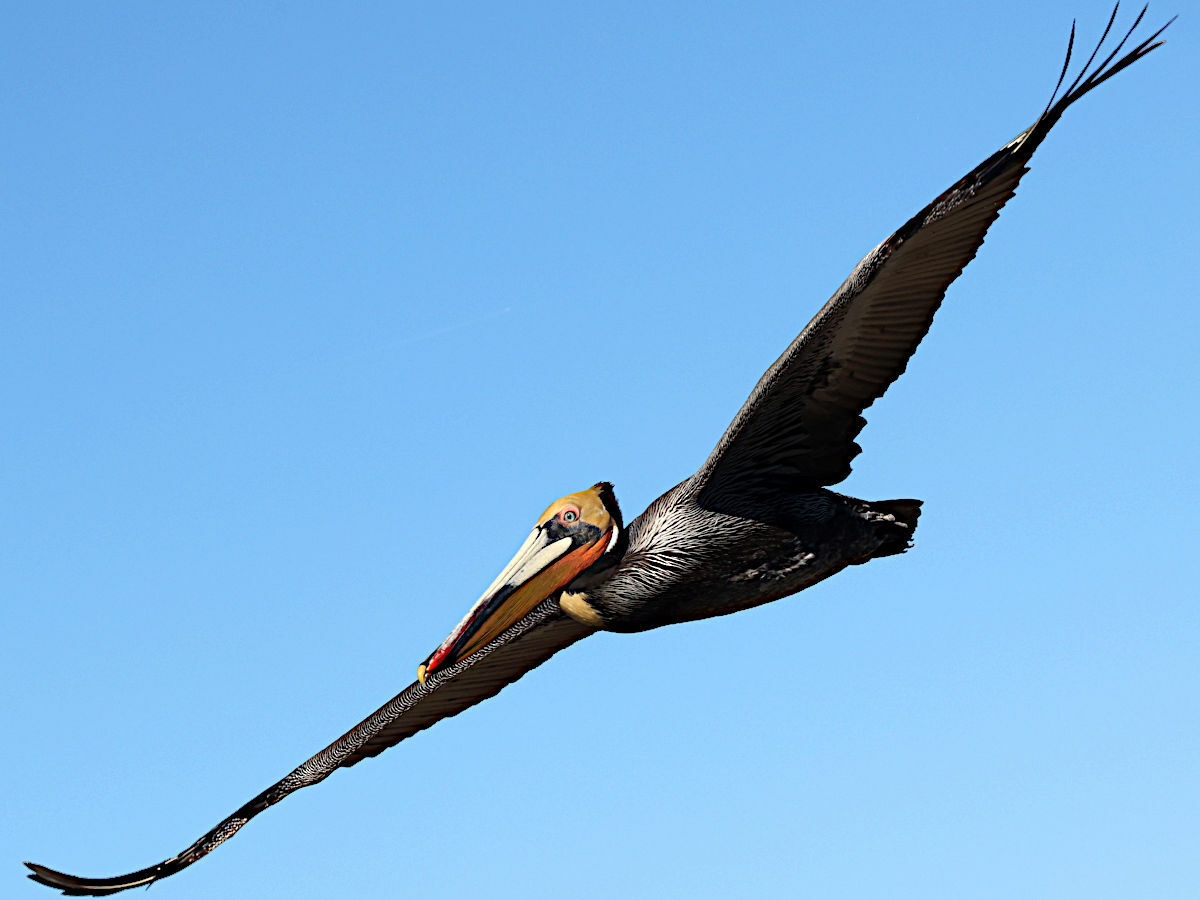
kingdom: Animalia
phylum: Chordata
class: Aves
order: Pelecaniformes
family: Pelecanidae
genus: Pelecanus
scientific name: Pelecanus occidentalis
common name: Brown pelican
